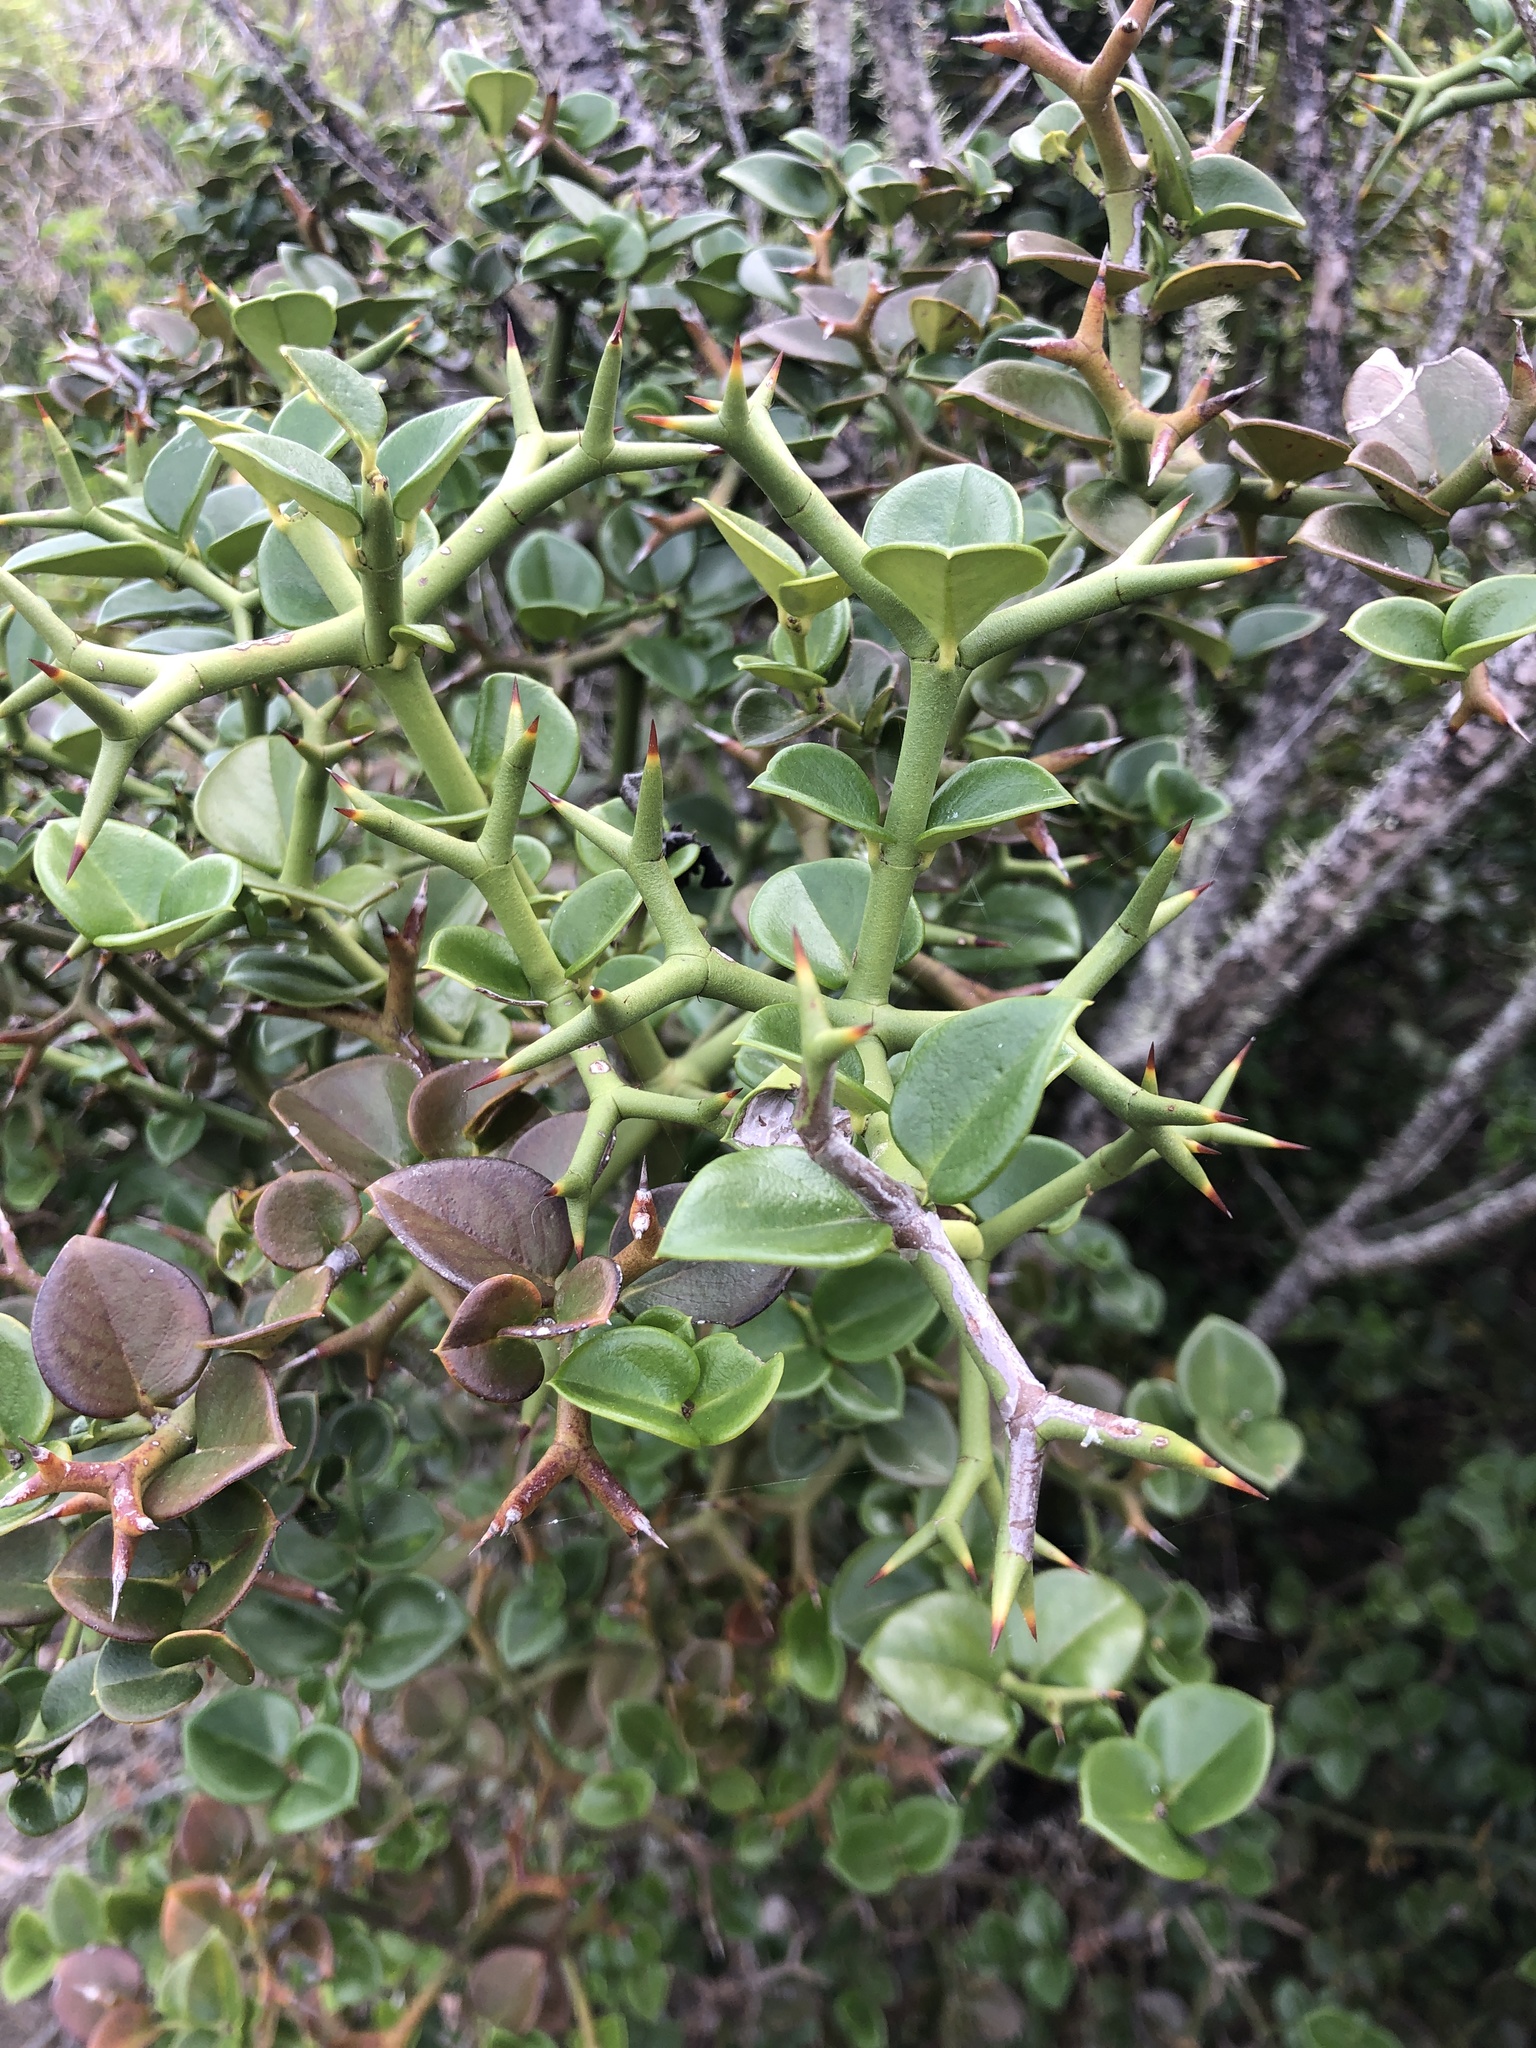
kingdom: Plantae
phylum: Tracheophyta
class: Magnoliopsida
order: Gentianales
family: Apocynaceae
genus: Carissa
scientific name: Carissa bispinosa
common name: Forest num-num
